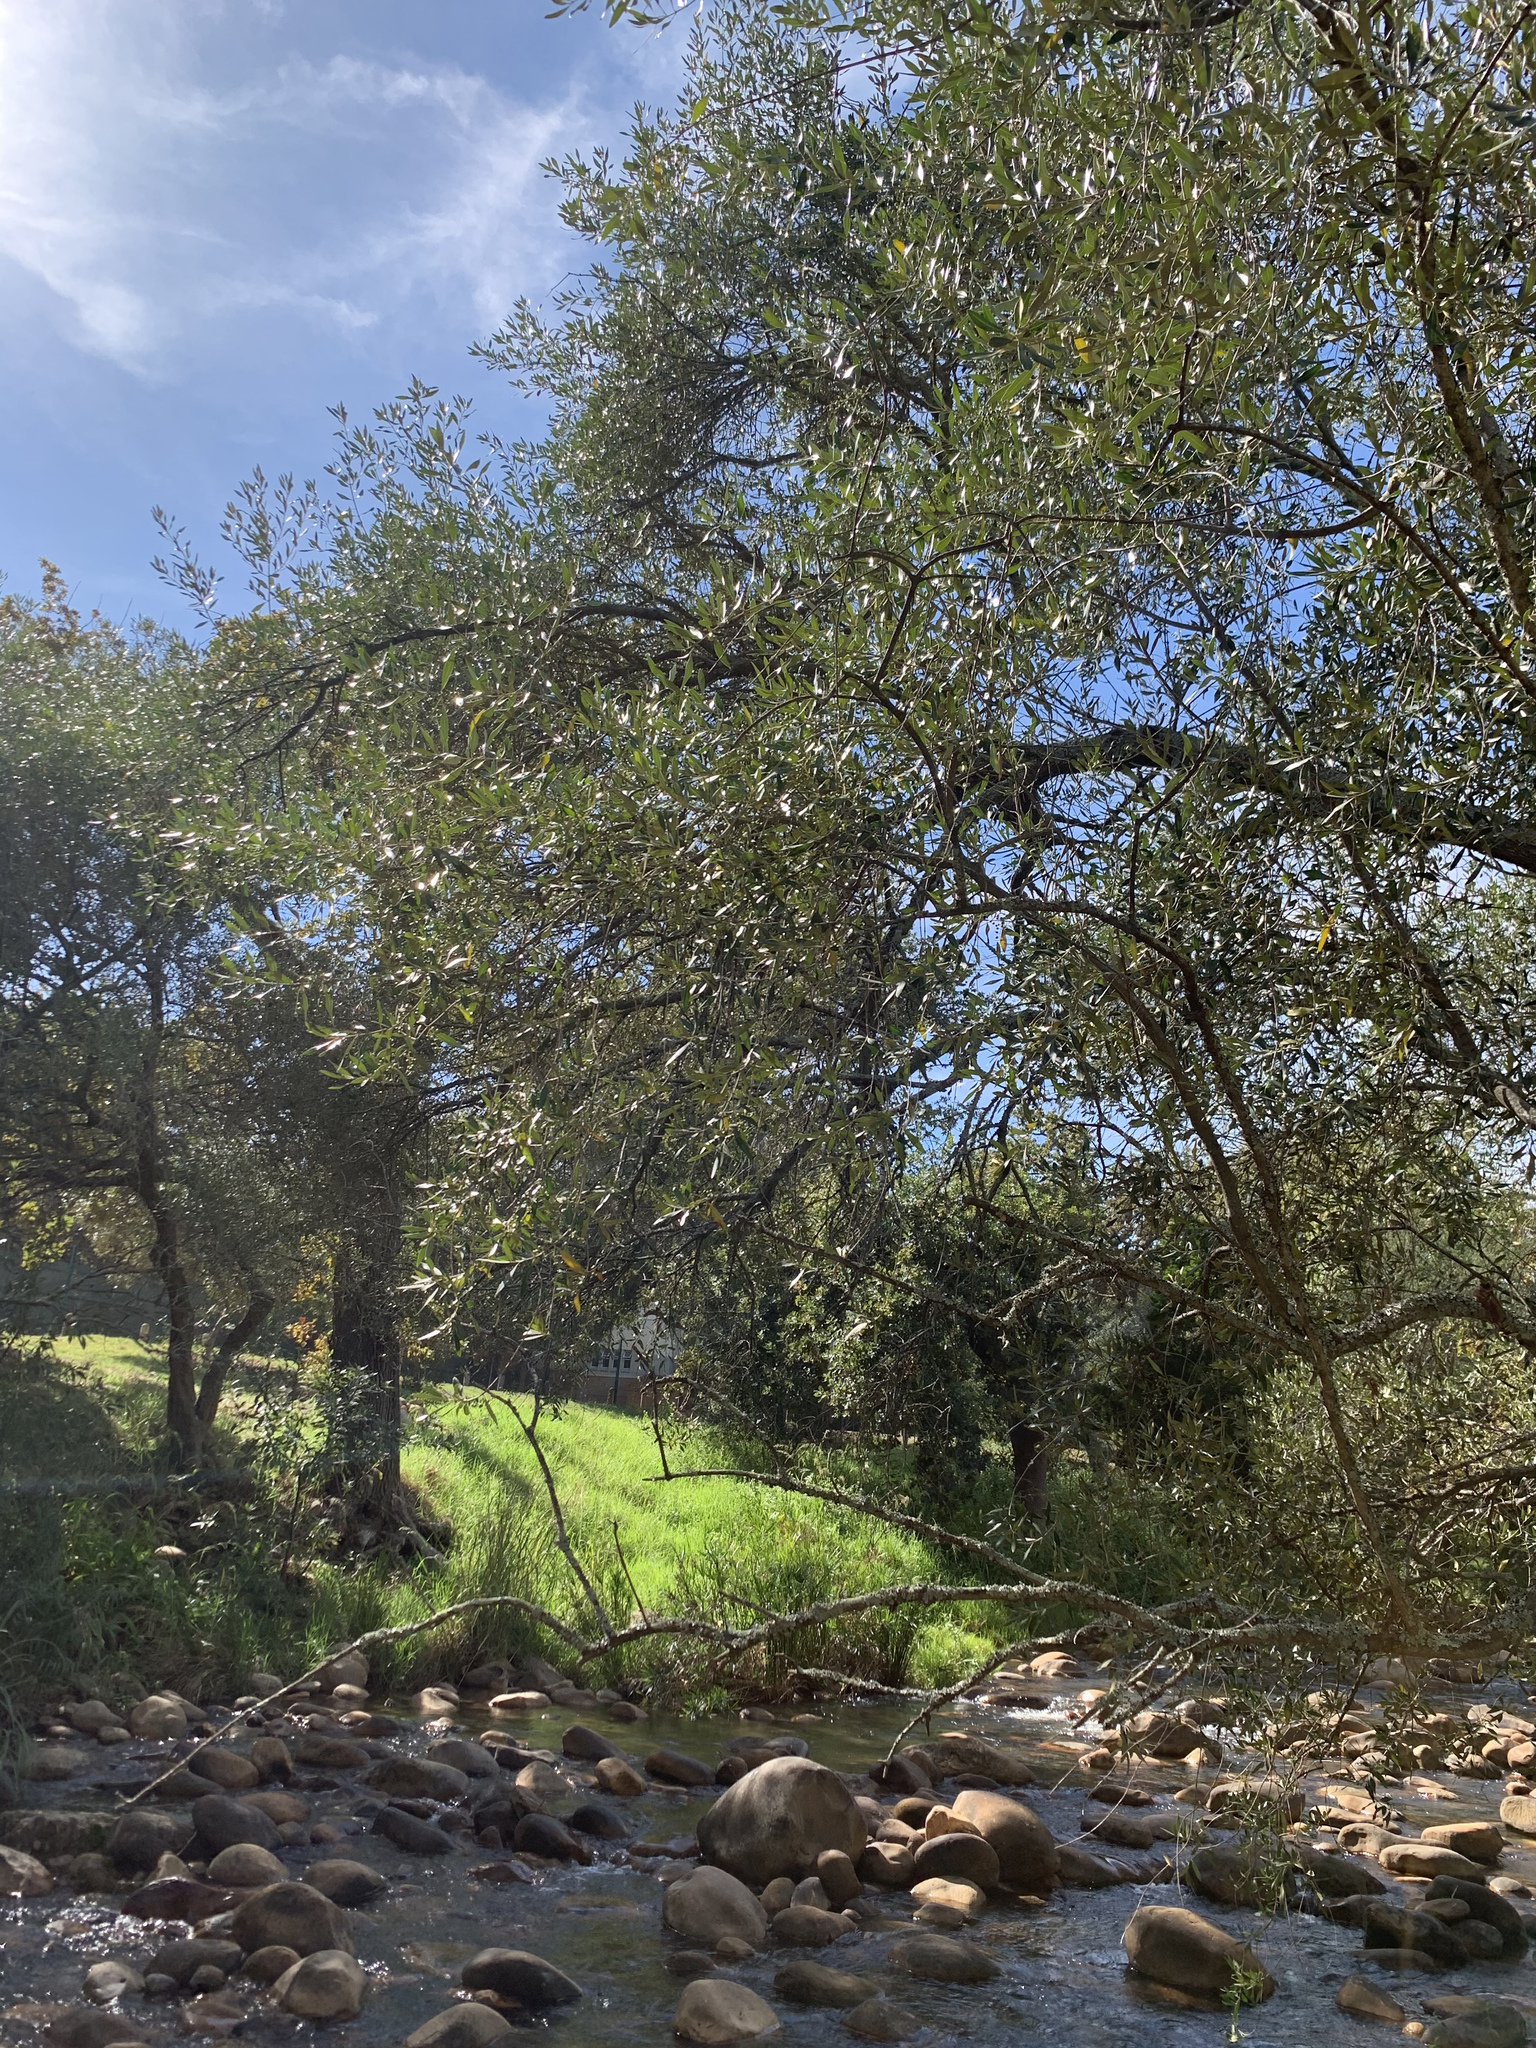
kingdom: Plantae
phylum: Tracheophyta
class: Magnoliopsida
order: Lamiales
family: Oleaceae
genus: Olea
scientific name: Olea europaea
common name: Olive
